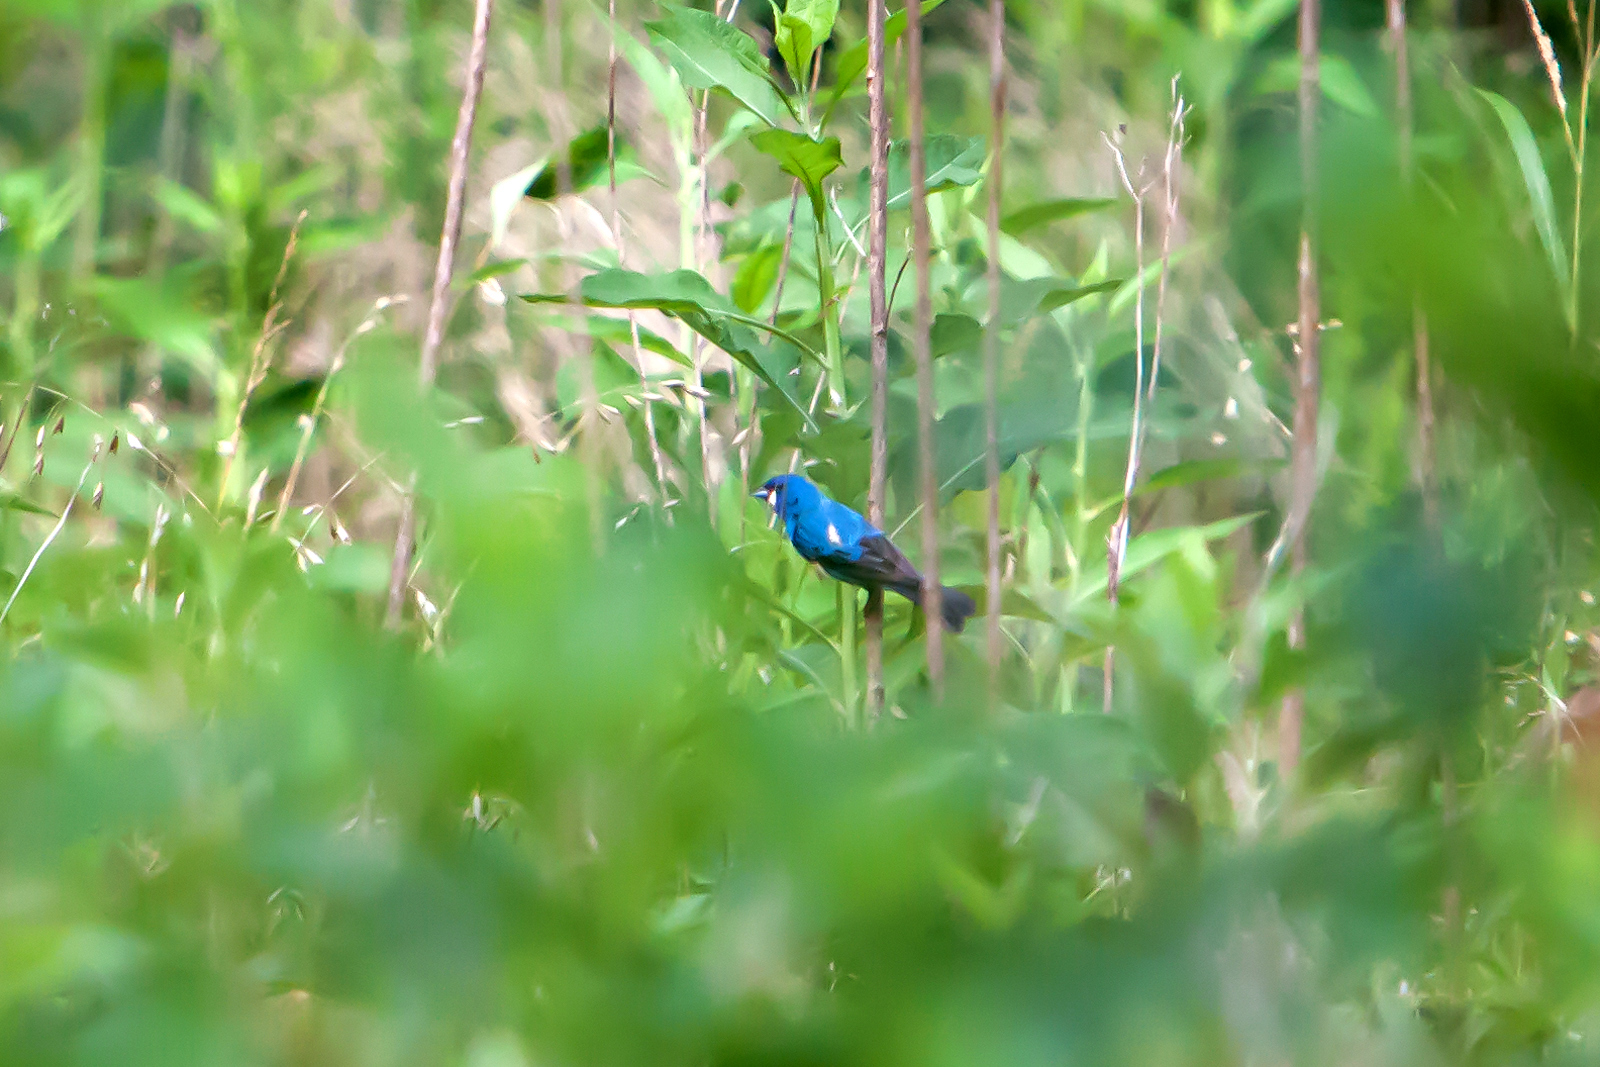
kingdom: Animalia
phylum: Chordata
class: Aves
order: Passeriformes
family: Cardinalidae
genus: Passerina
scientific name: Passerina cyanea
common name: Indigo bunting
